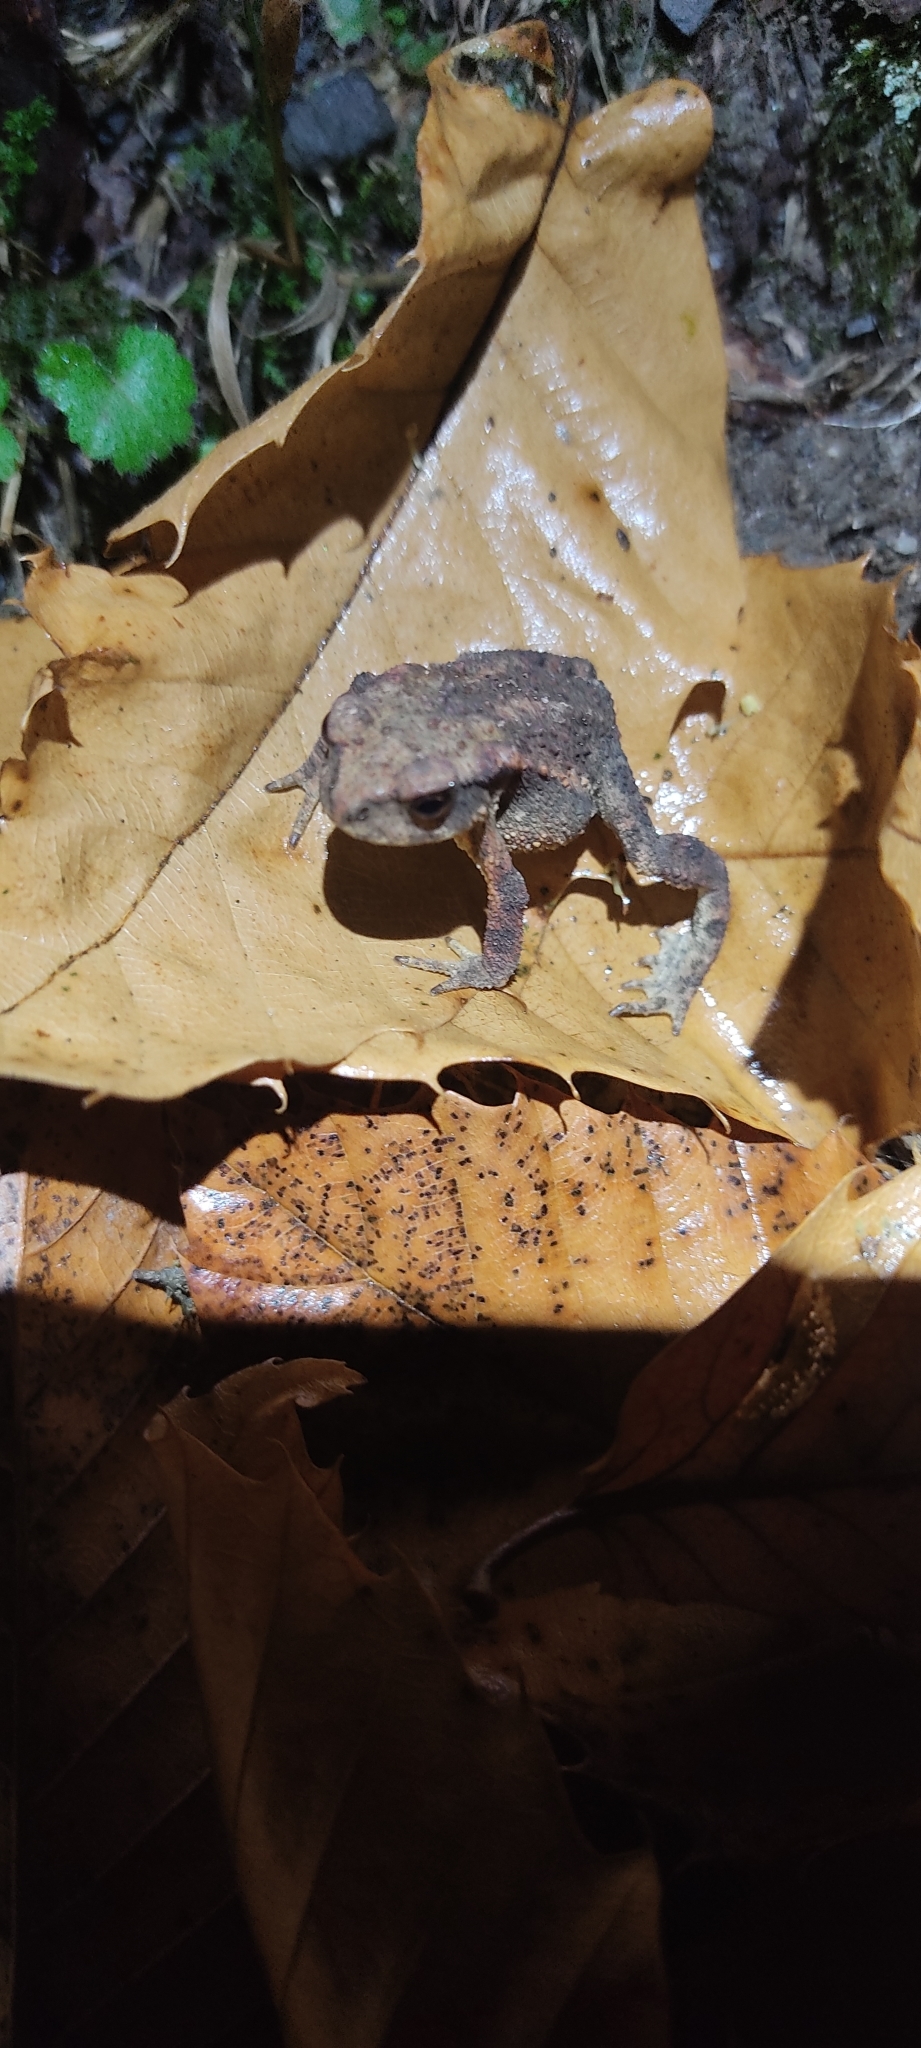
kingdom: Animalia
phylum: Chordata
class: Amphibia
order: Anura
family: Bufonidae
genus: Bufo
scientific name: Bufo spinosus
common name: Western common toad
